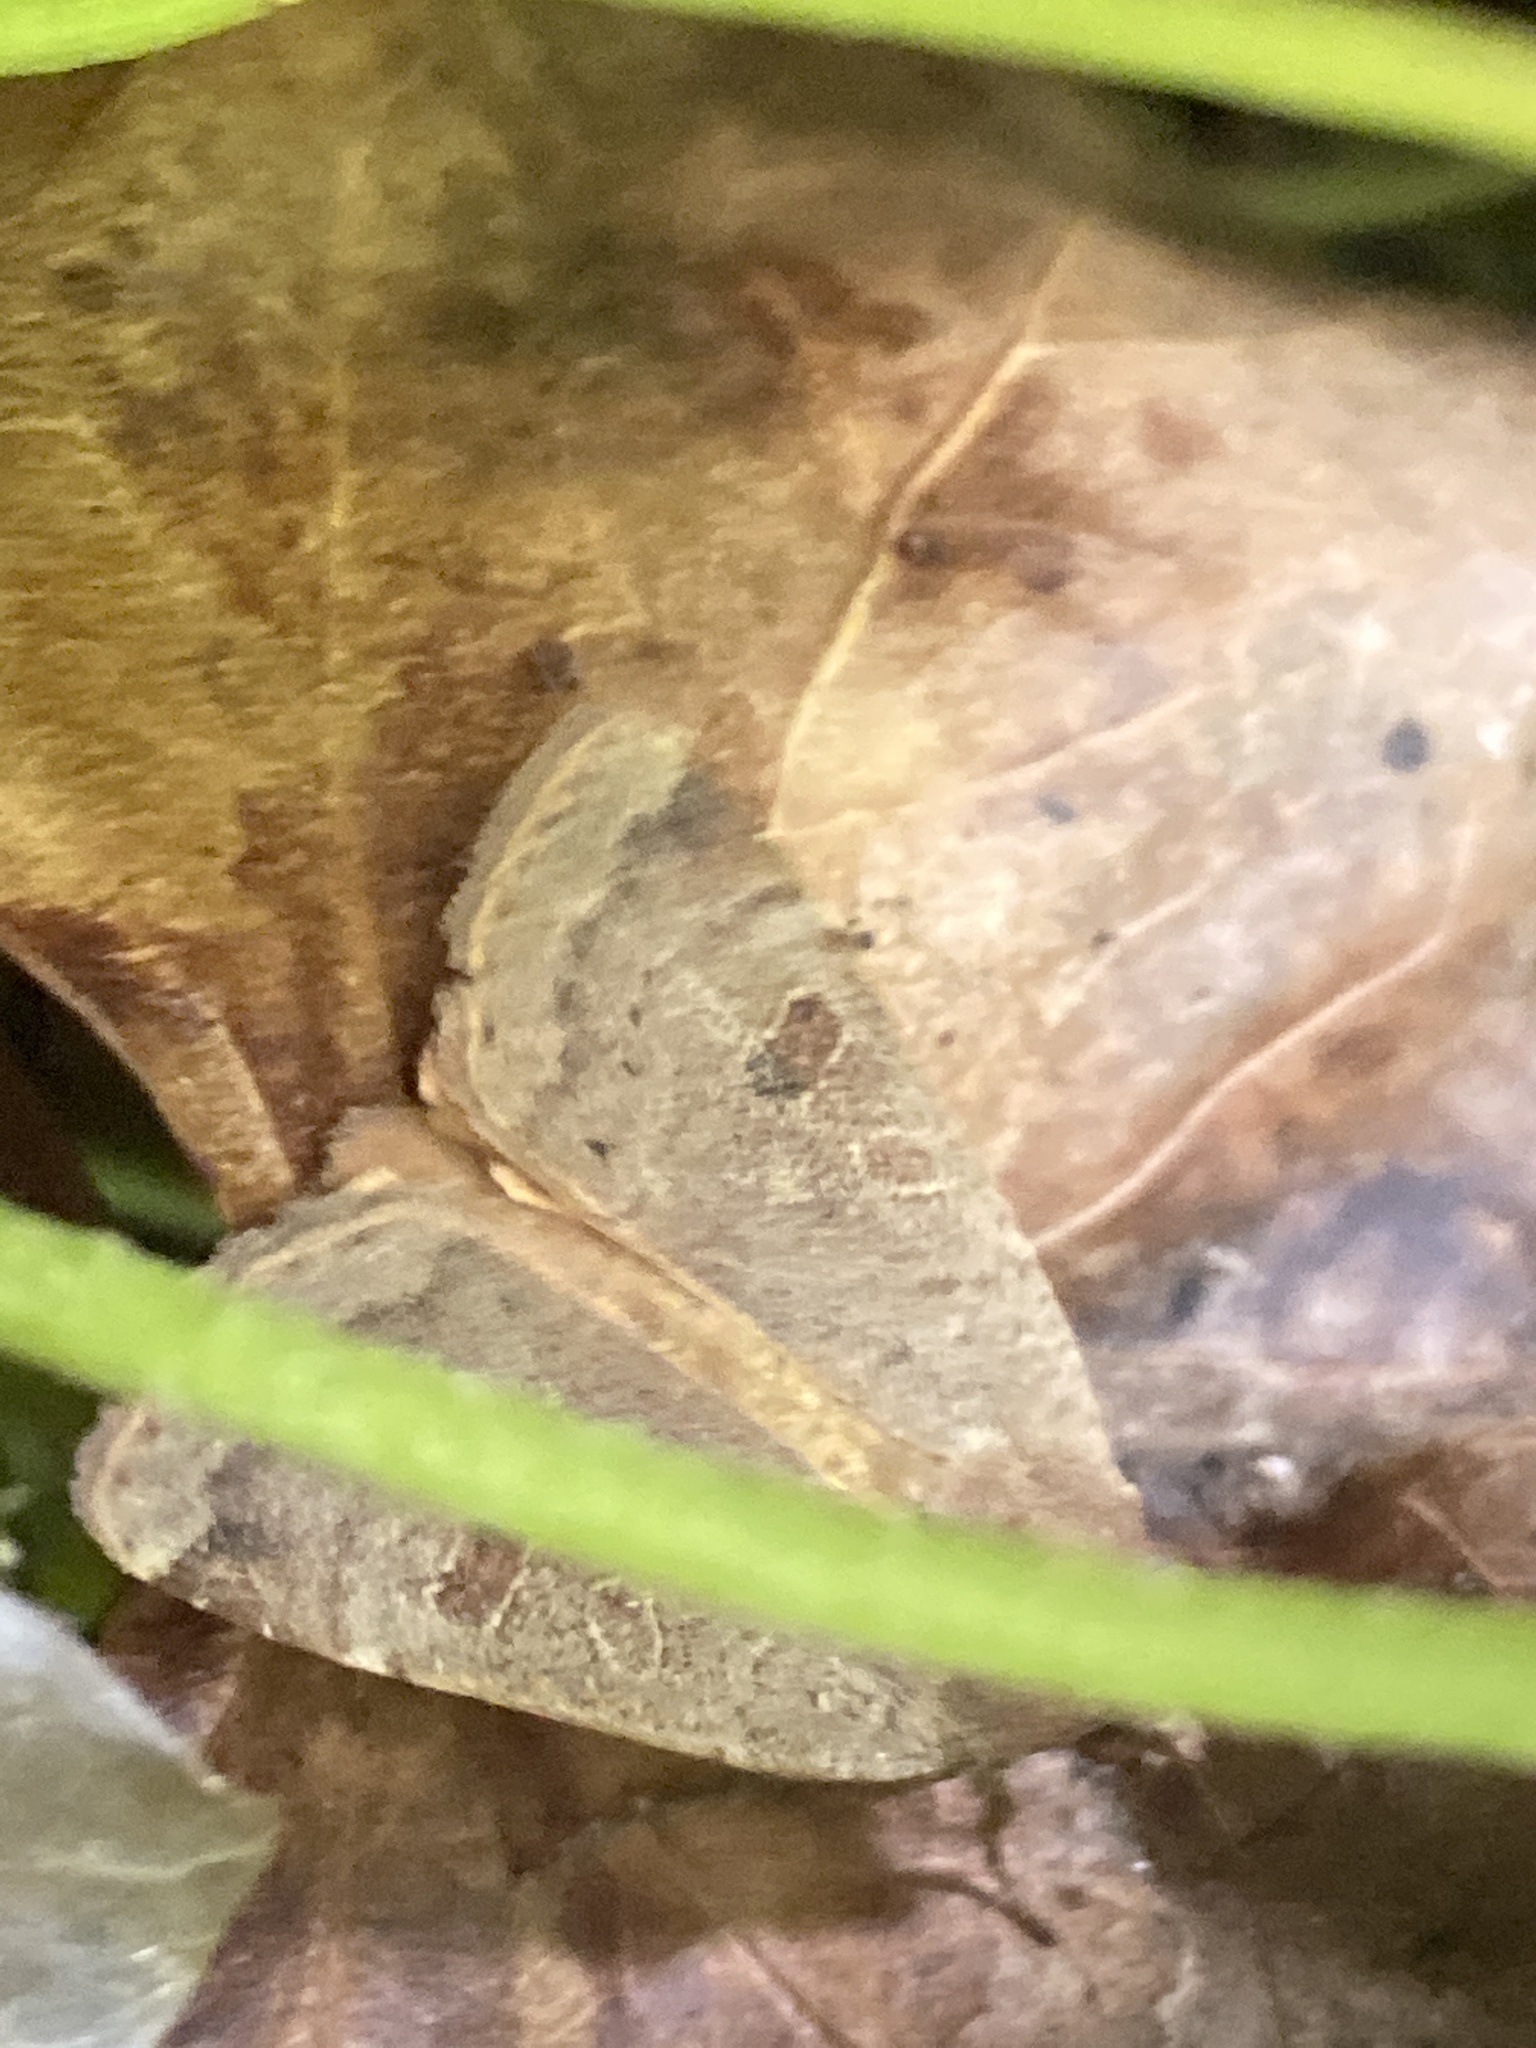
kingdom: Animalia
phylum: Arthropoda
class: Insecta
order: Lepidoptera
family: Noctuidae
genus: Noctua
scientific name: Noctua comes
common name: Lesser yellow underwing
